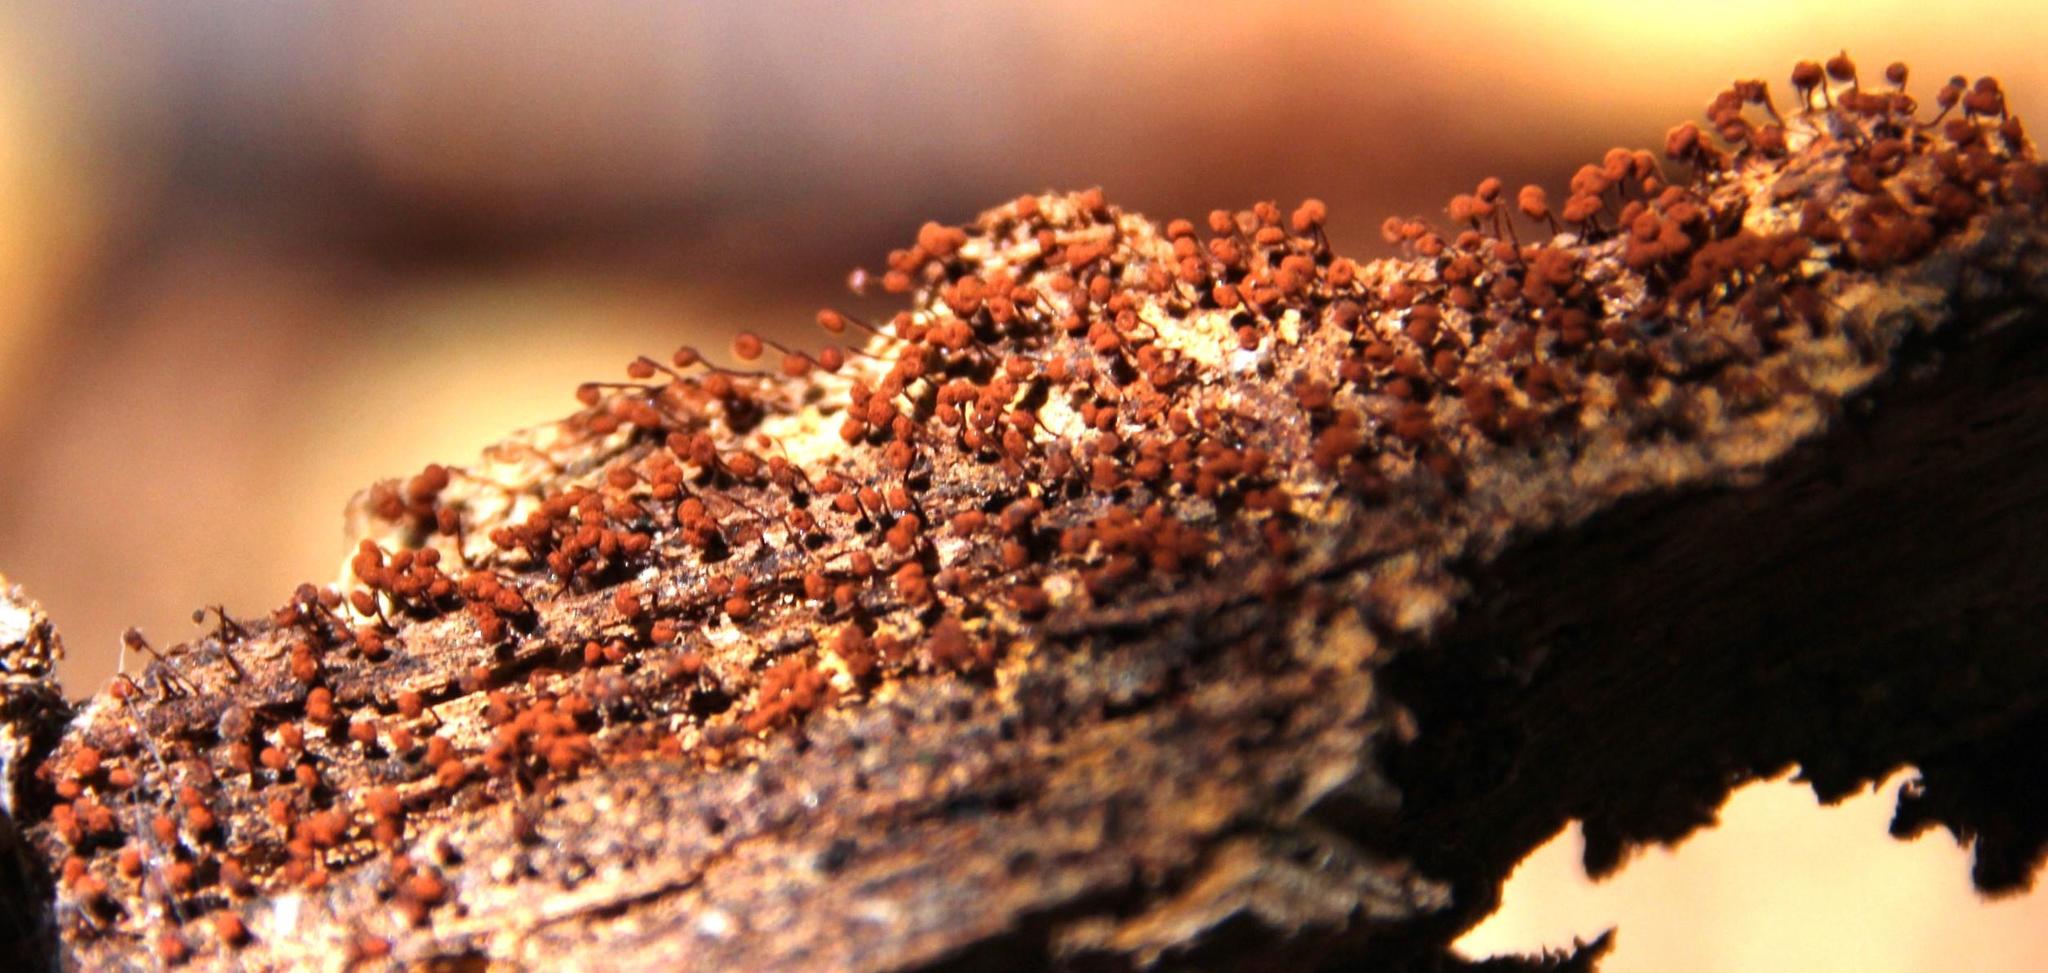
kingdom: Protozoa
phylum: Mycetozoa
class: Myxomycetes
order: Cribrariales
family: Cribrariaceae
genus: Cribraria
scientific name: Cribraria cancellata
